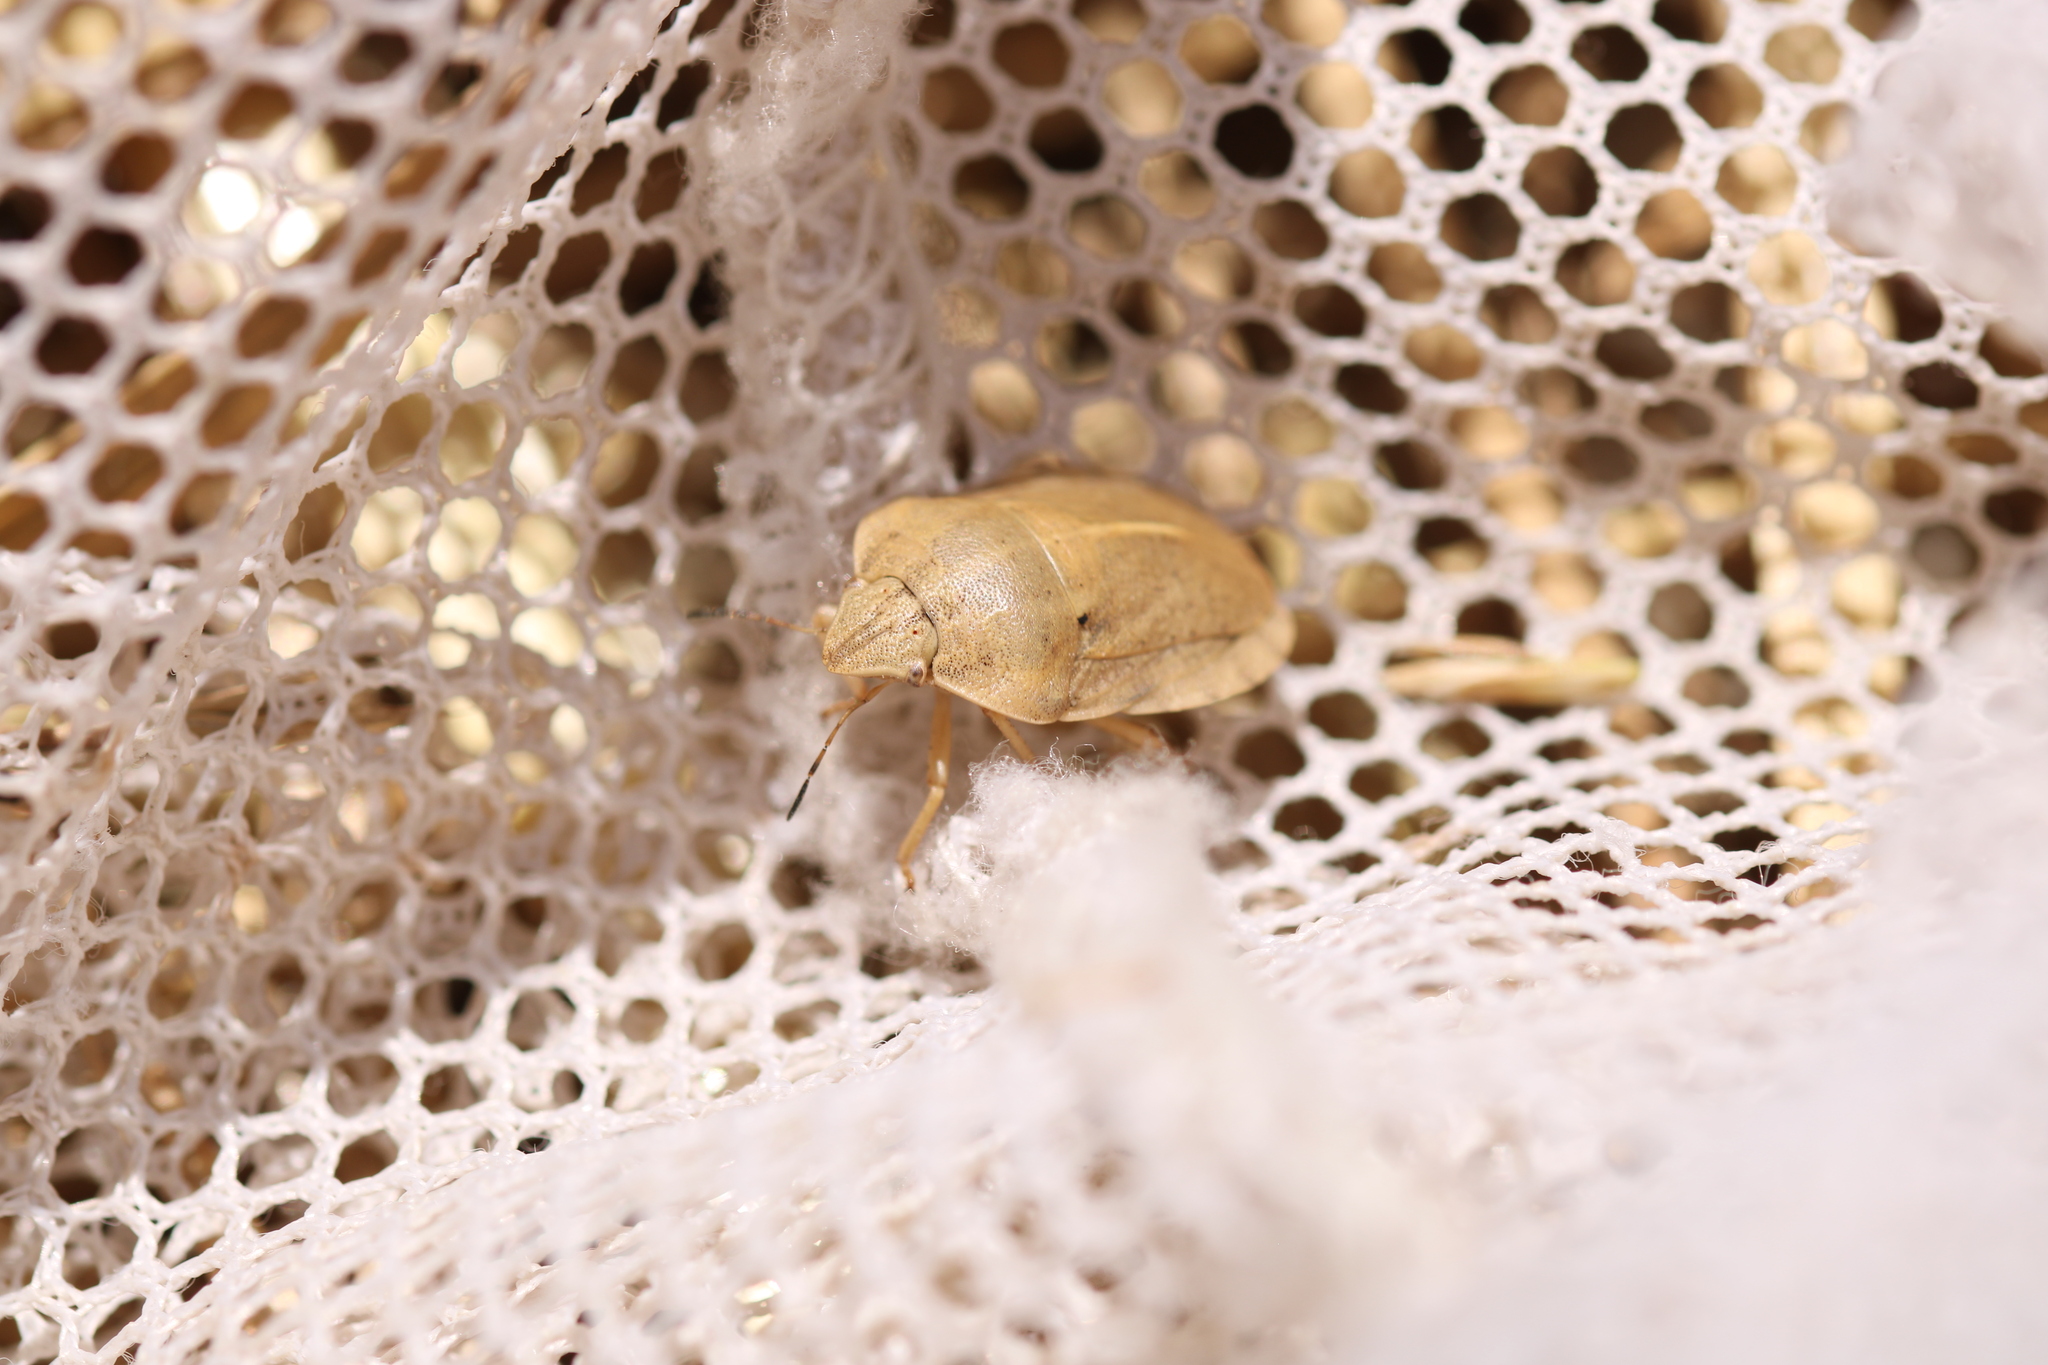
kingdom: Animalia
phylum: Arthropoda
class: Insecta
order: Hemiptera
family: Scutelleridae
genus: Eurygaster
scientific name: Eurygaster austriaca
